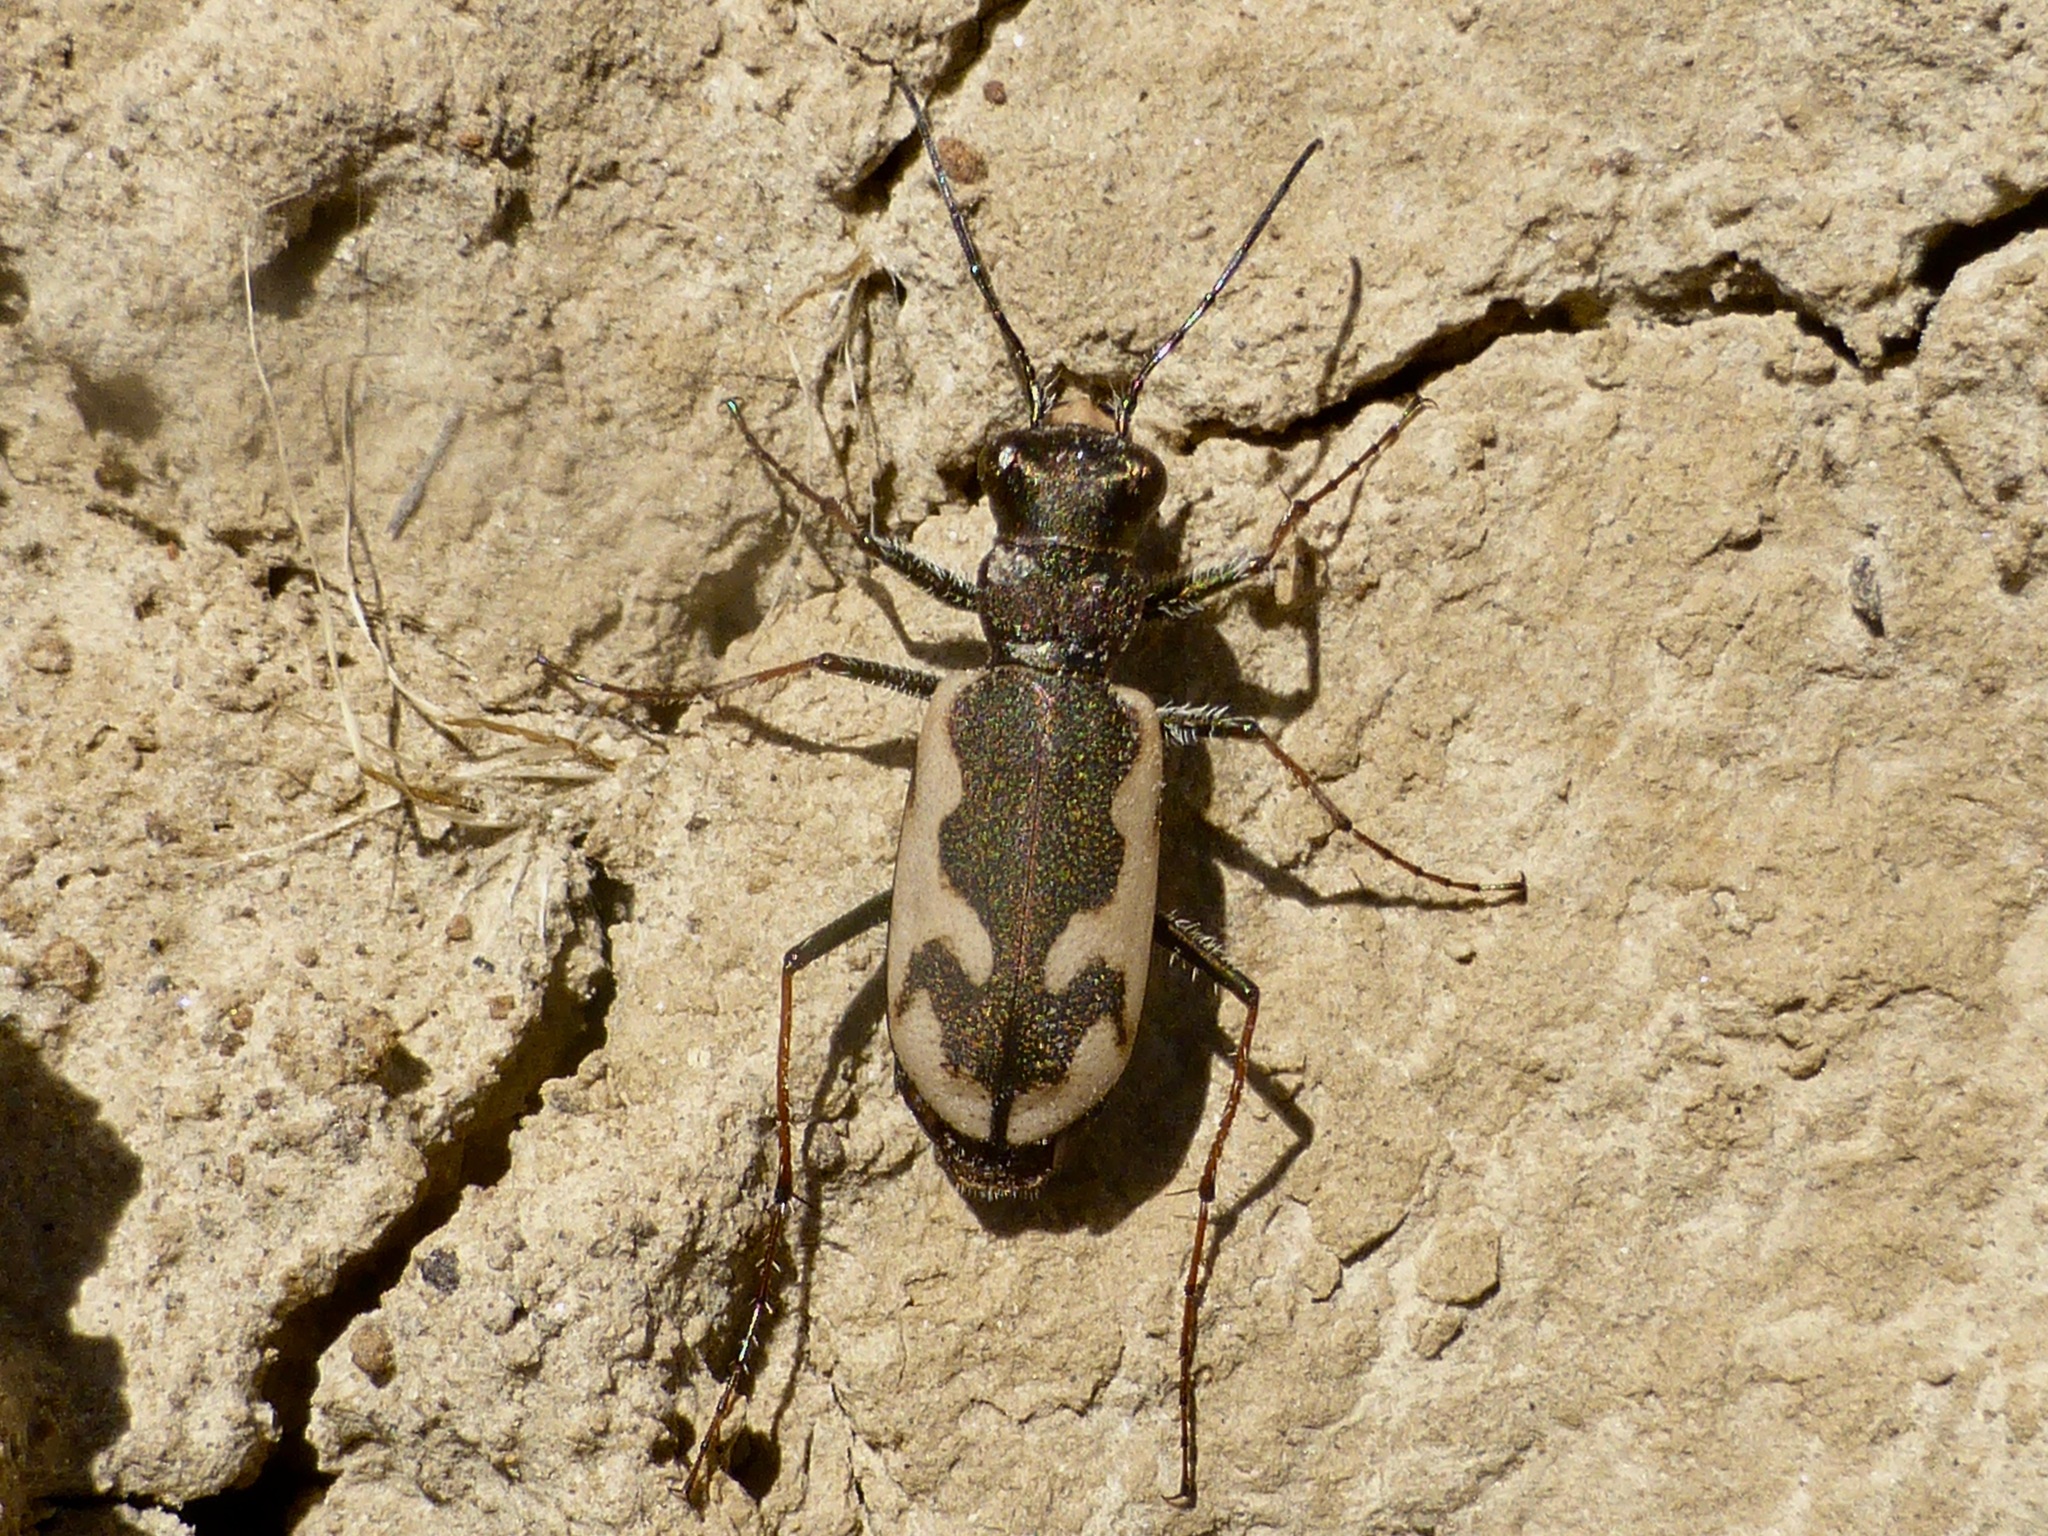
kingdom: Animalia
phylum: Arthropoda
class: Insecta
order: Coleoptera
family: Carabidae
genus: Neocicindela
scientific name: Neocicindela latecincta
